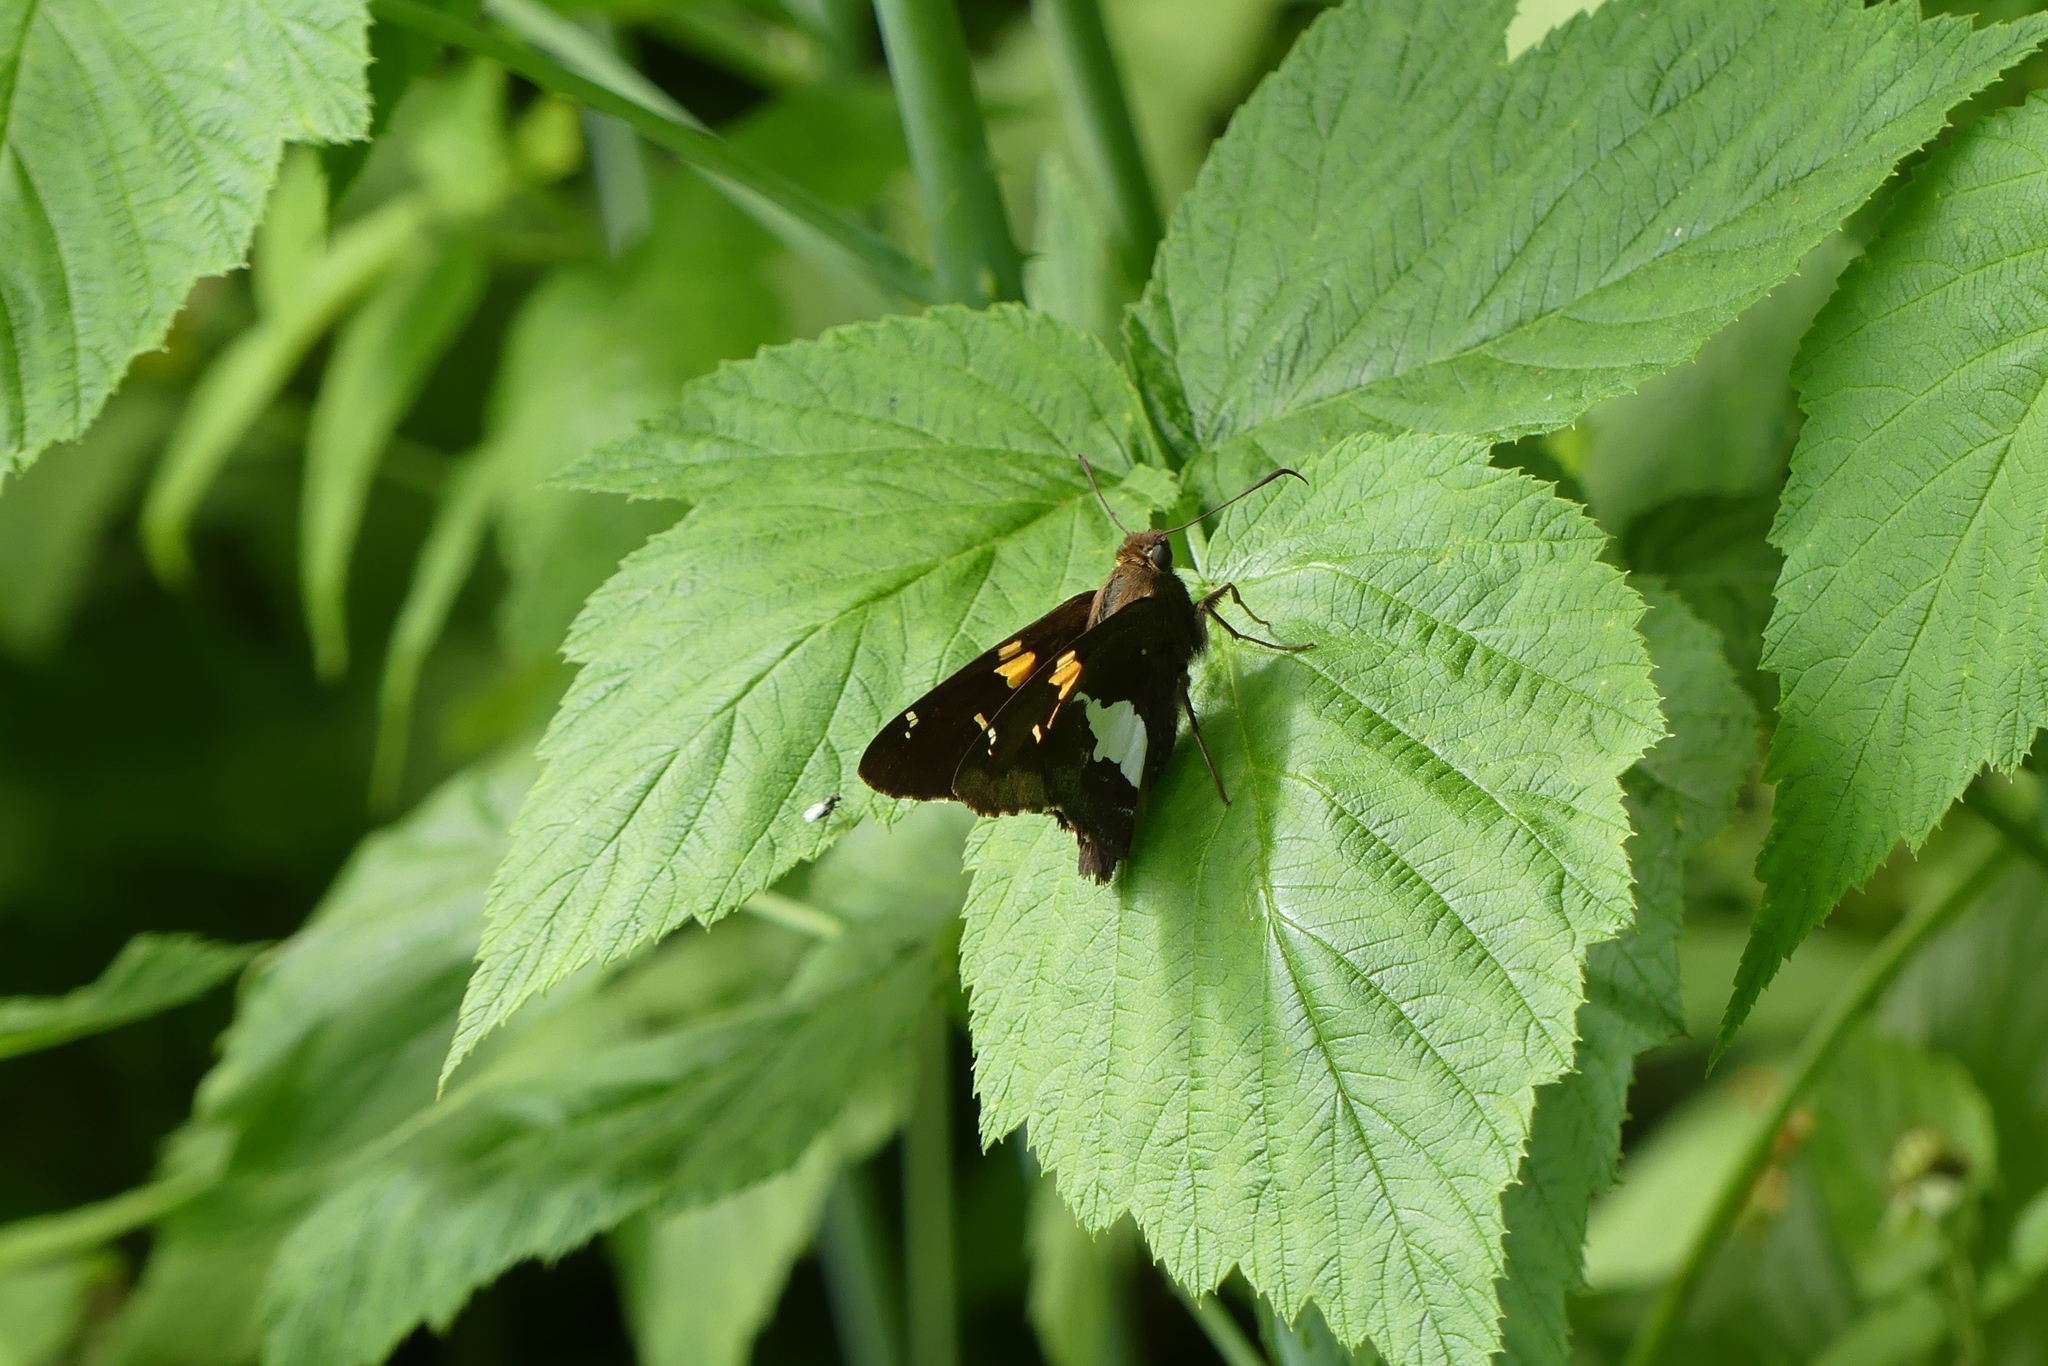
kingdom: Animalia
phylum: Arthropoda
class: Insecta
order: Lepidoptera
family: Hesperiidae
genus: Epargyreus
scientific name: Epargyreus clarus
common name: Silver-spotted skipper
